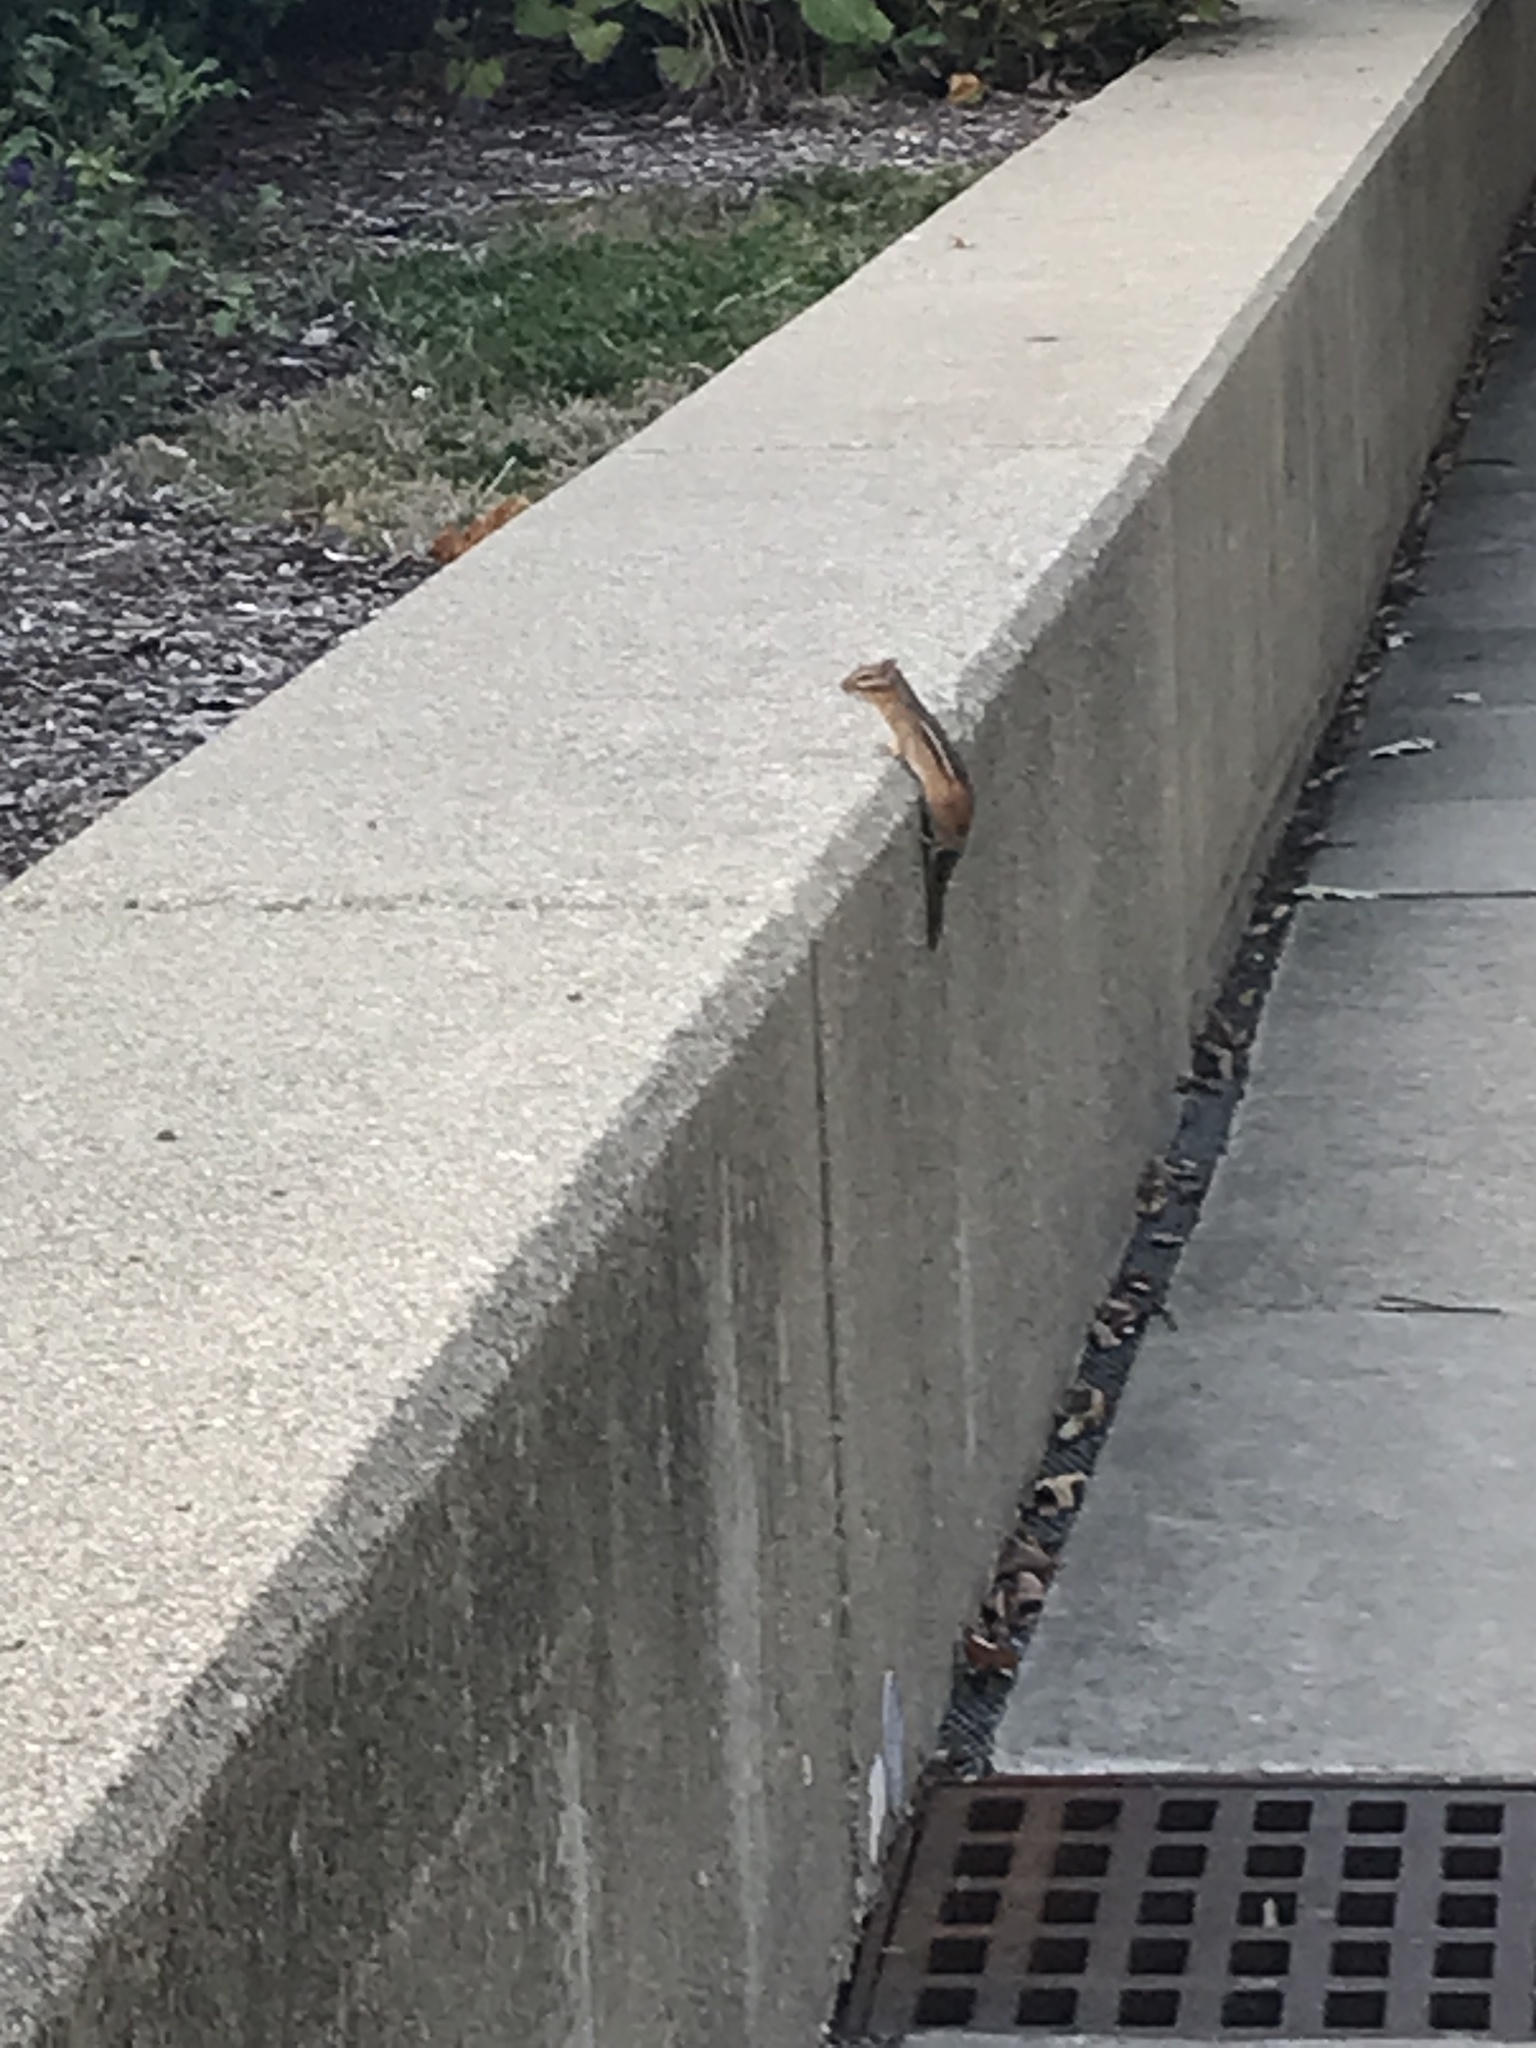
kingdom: Animalia
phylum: Chordata
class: Mammalia
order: Rodentia
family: Sciuridae
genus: Tamias
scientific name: Tamias striatus
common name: Eastern chipmunk
